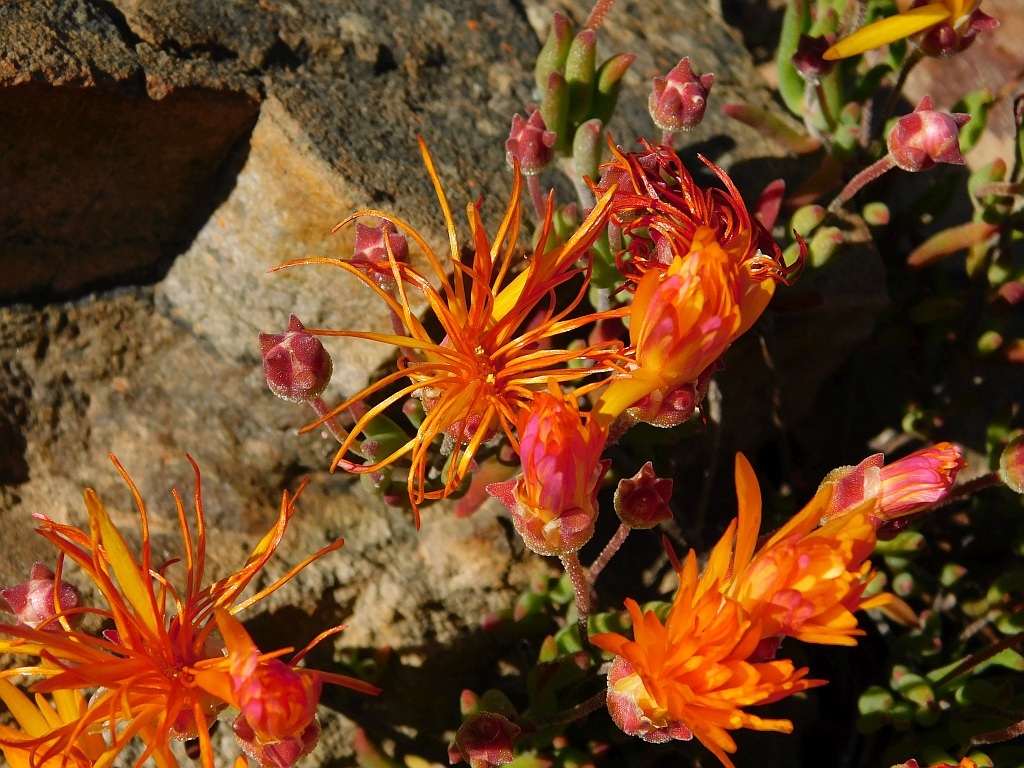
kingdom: Plantae
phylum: Tracheophyta
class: Magnoliopsida
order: Caryophyllales
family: Aizoaceae
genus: Drosanthemum
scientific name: Drosanthemum flavum
